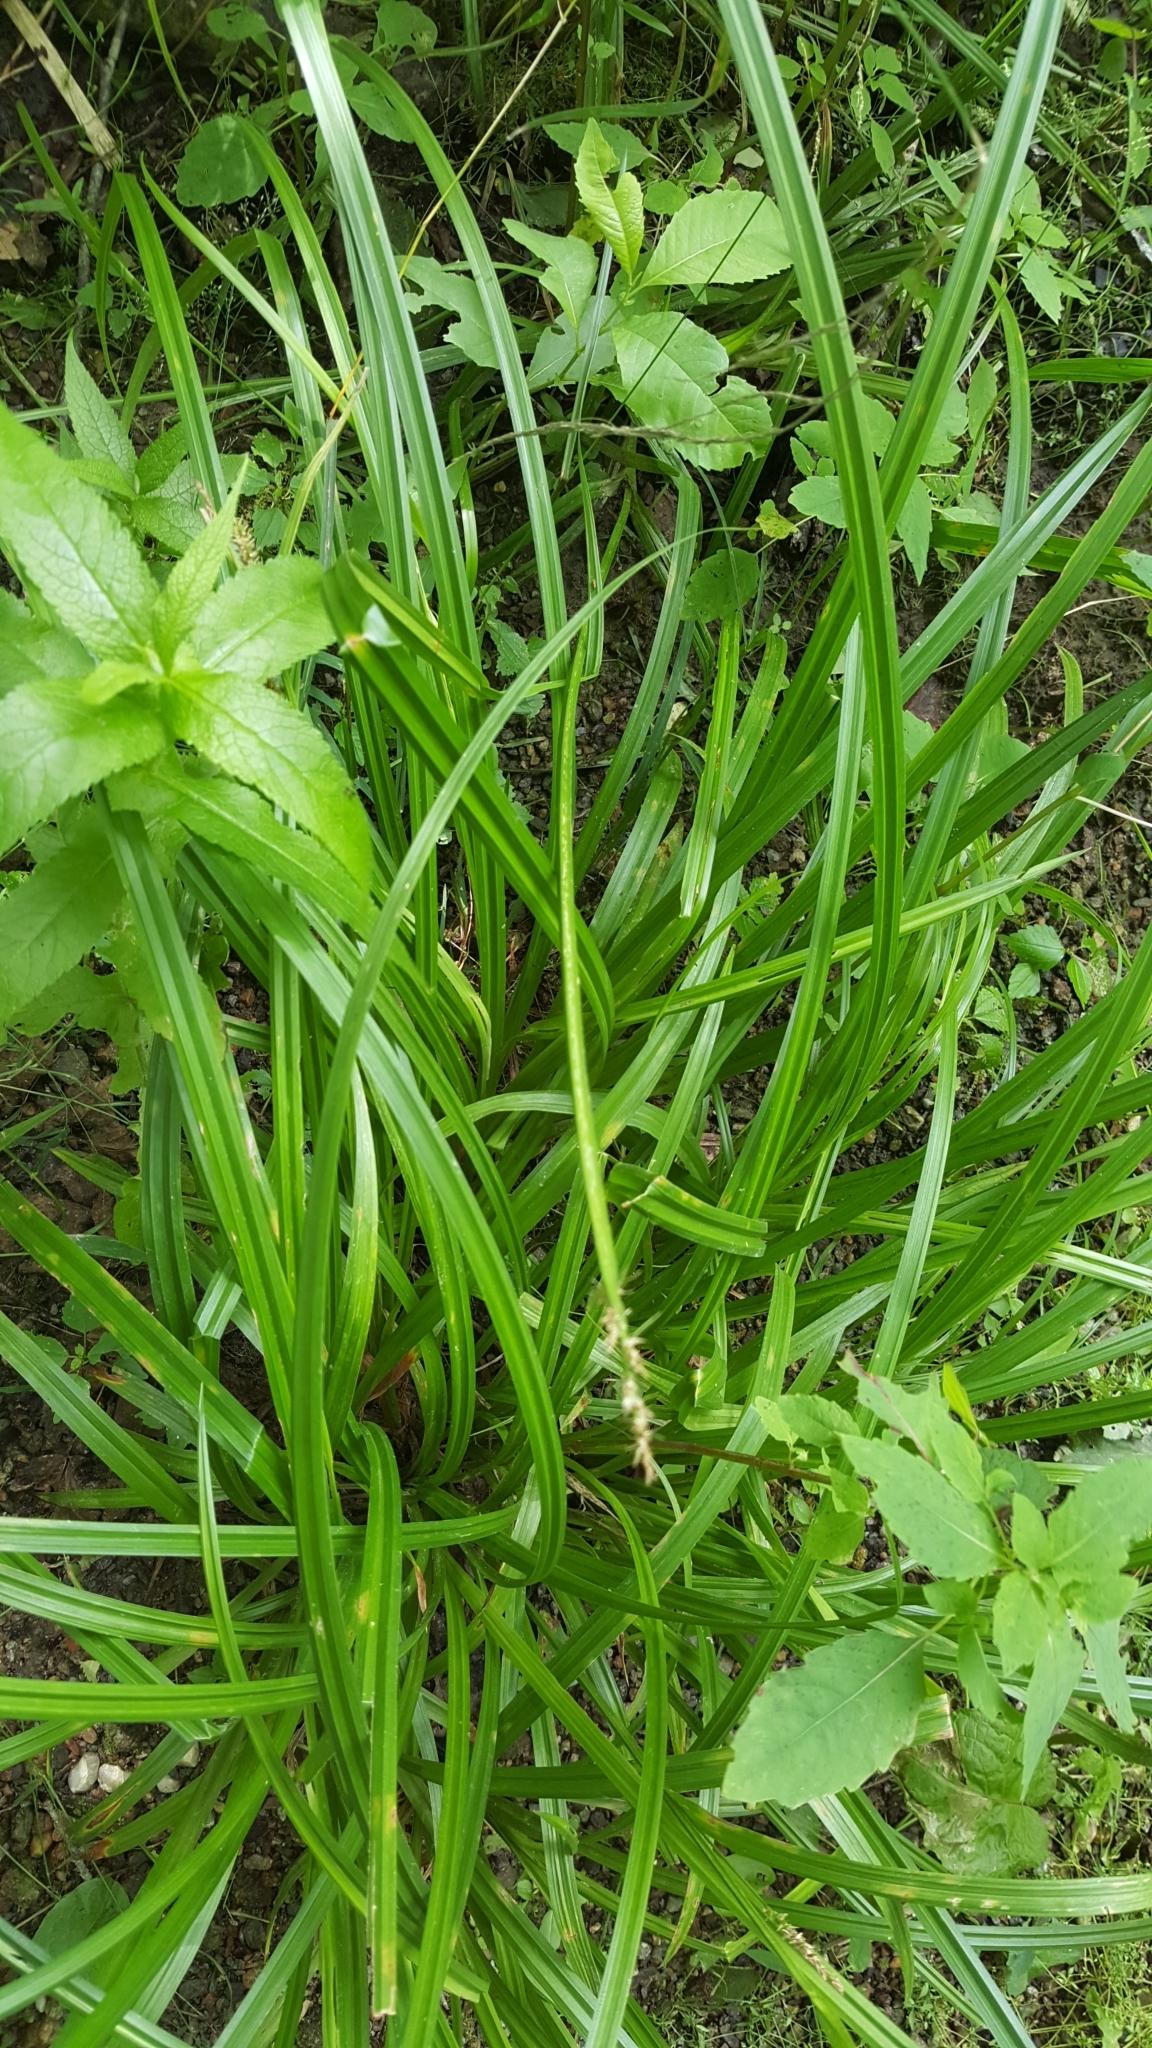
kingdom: Plantae
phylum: Tracheophyta
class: Liliopsida
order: Poales
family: Cyperaceae
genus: Carex
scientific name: Carex stipata
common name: Awl-fruited sedge
